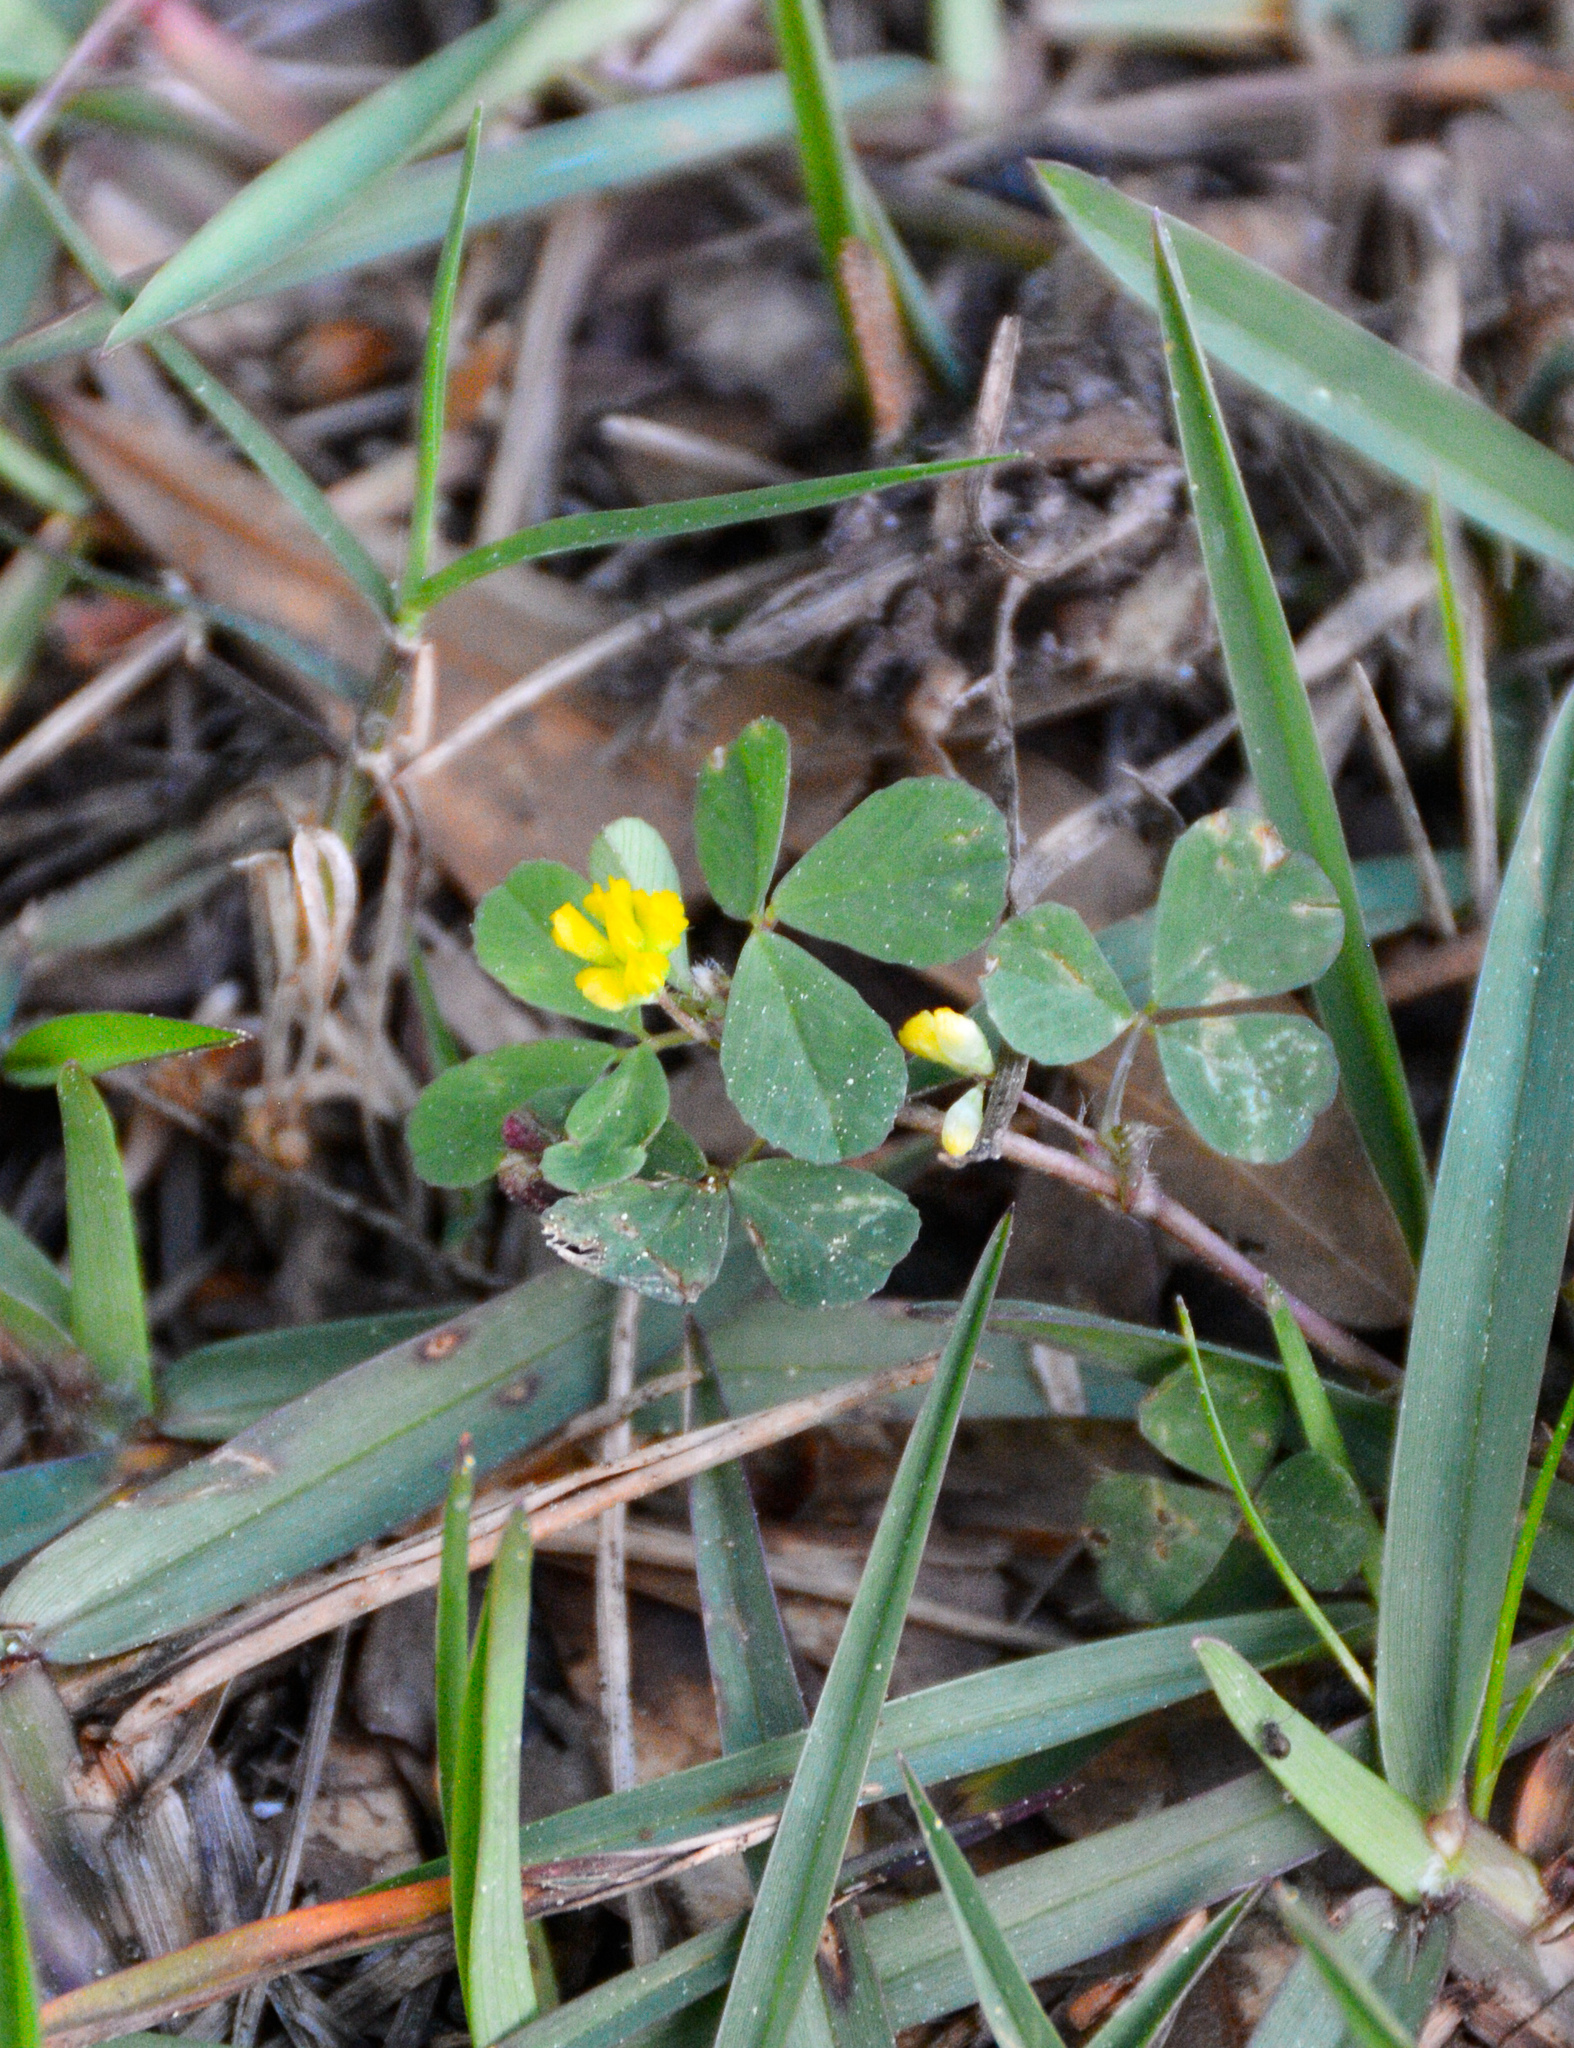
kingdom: Plantae
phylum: Tracheophyta
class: Magnoliopsida
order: Fabales
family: Fabaceae
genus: Trifolium
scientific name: Trifolium dubium
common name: Suckling clover
